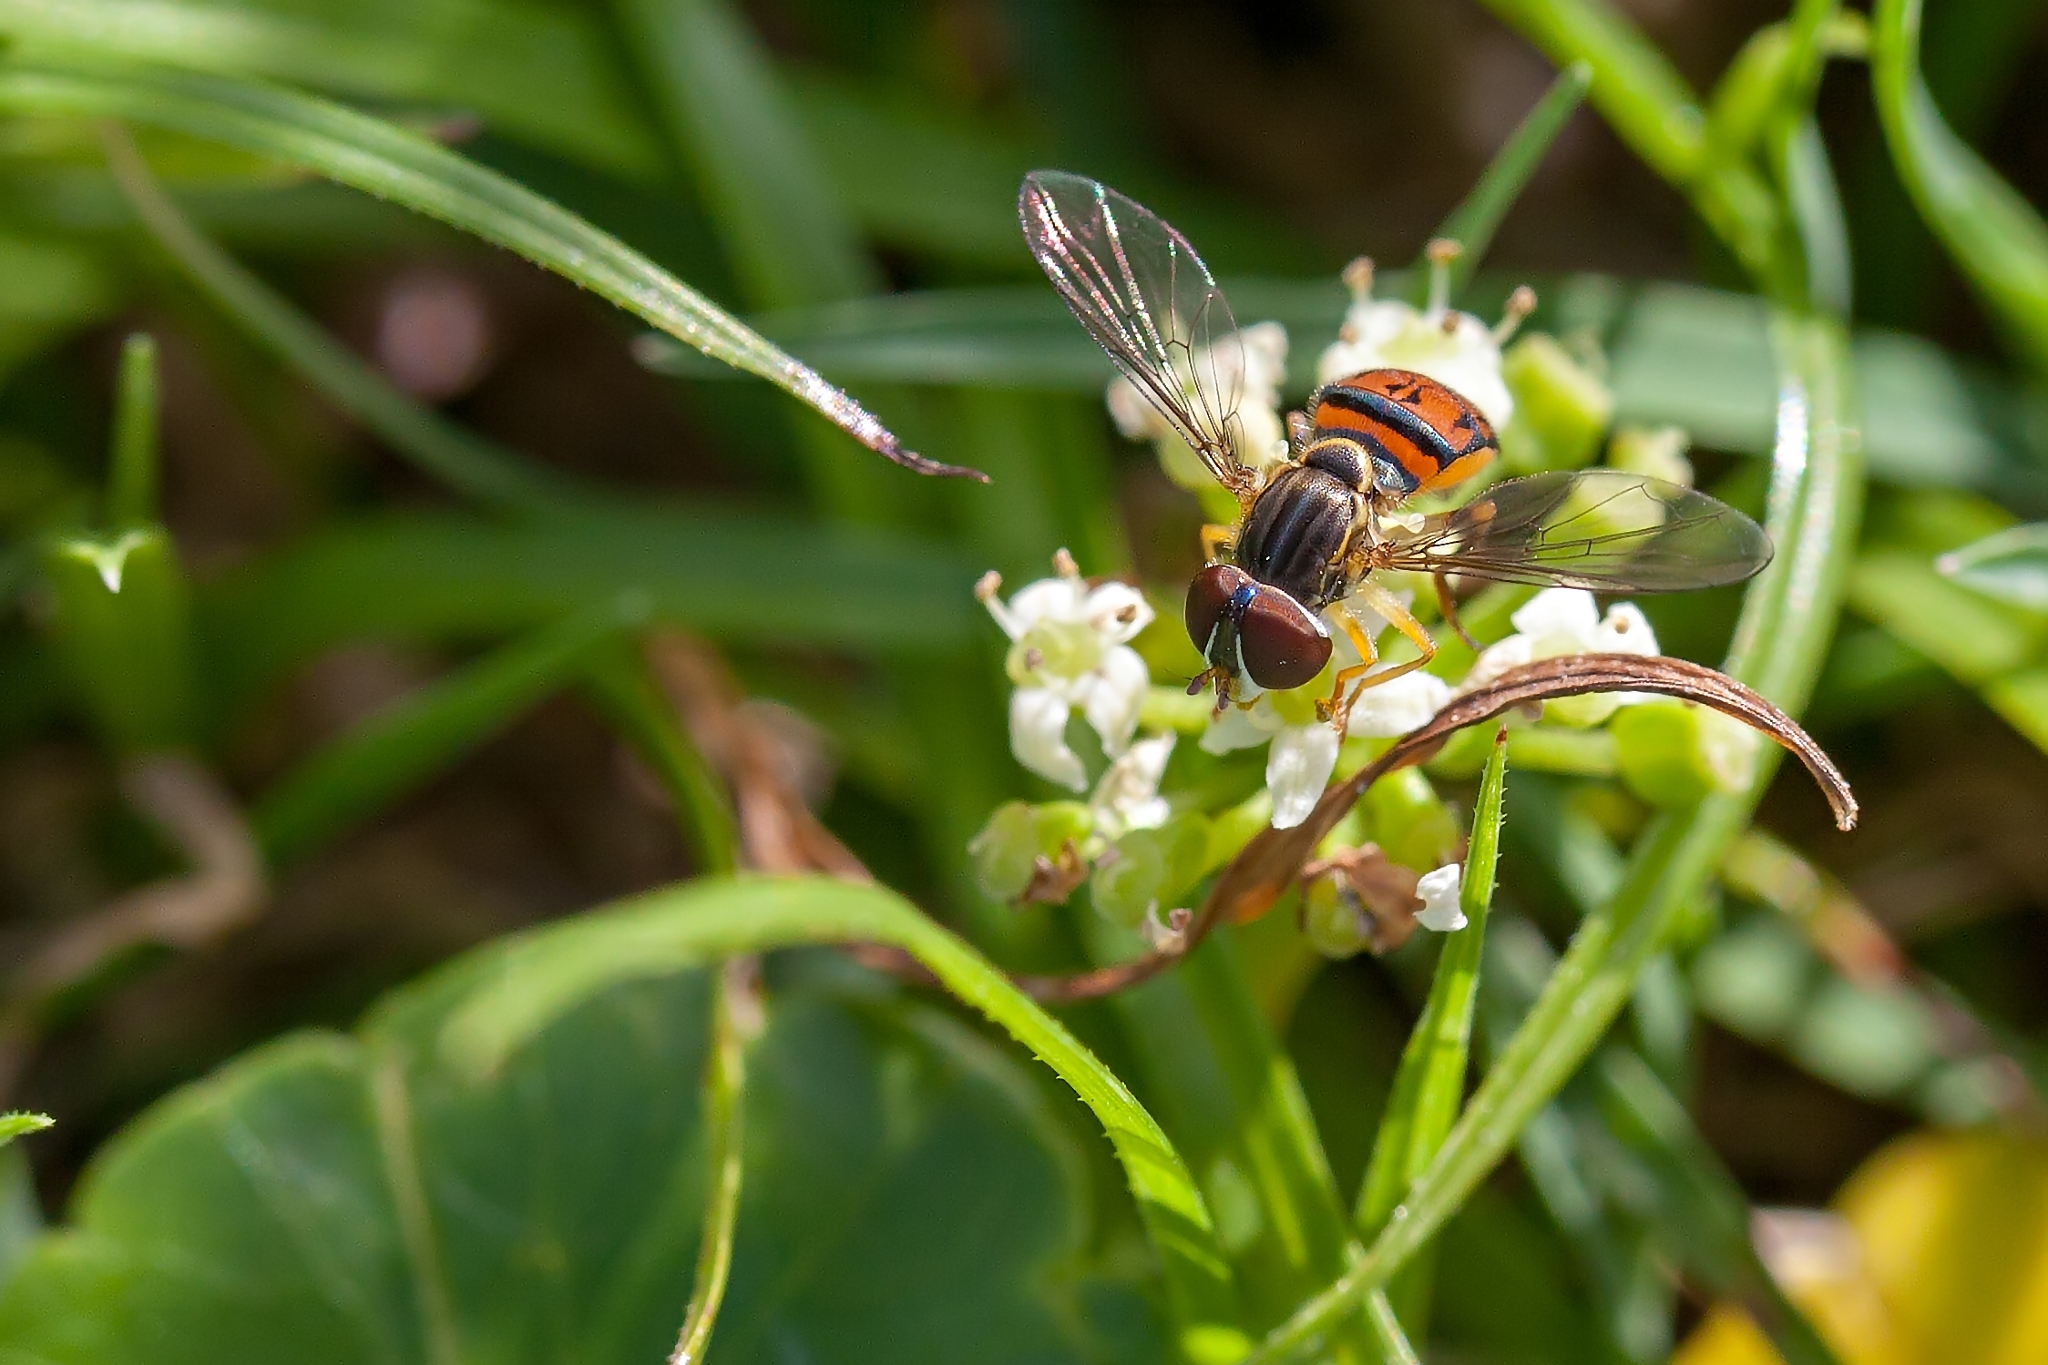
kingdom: Animalia
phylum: Arthropoda
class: Insecta
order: Diptera
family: Syrphidae
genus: Toxomerus
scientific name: Toxomerus boscii
